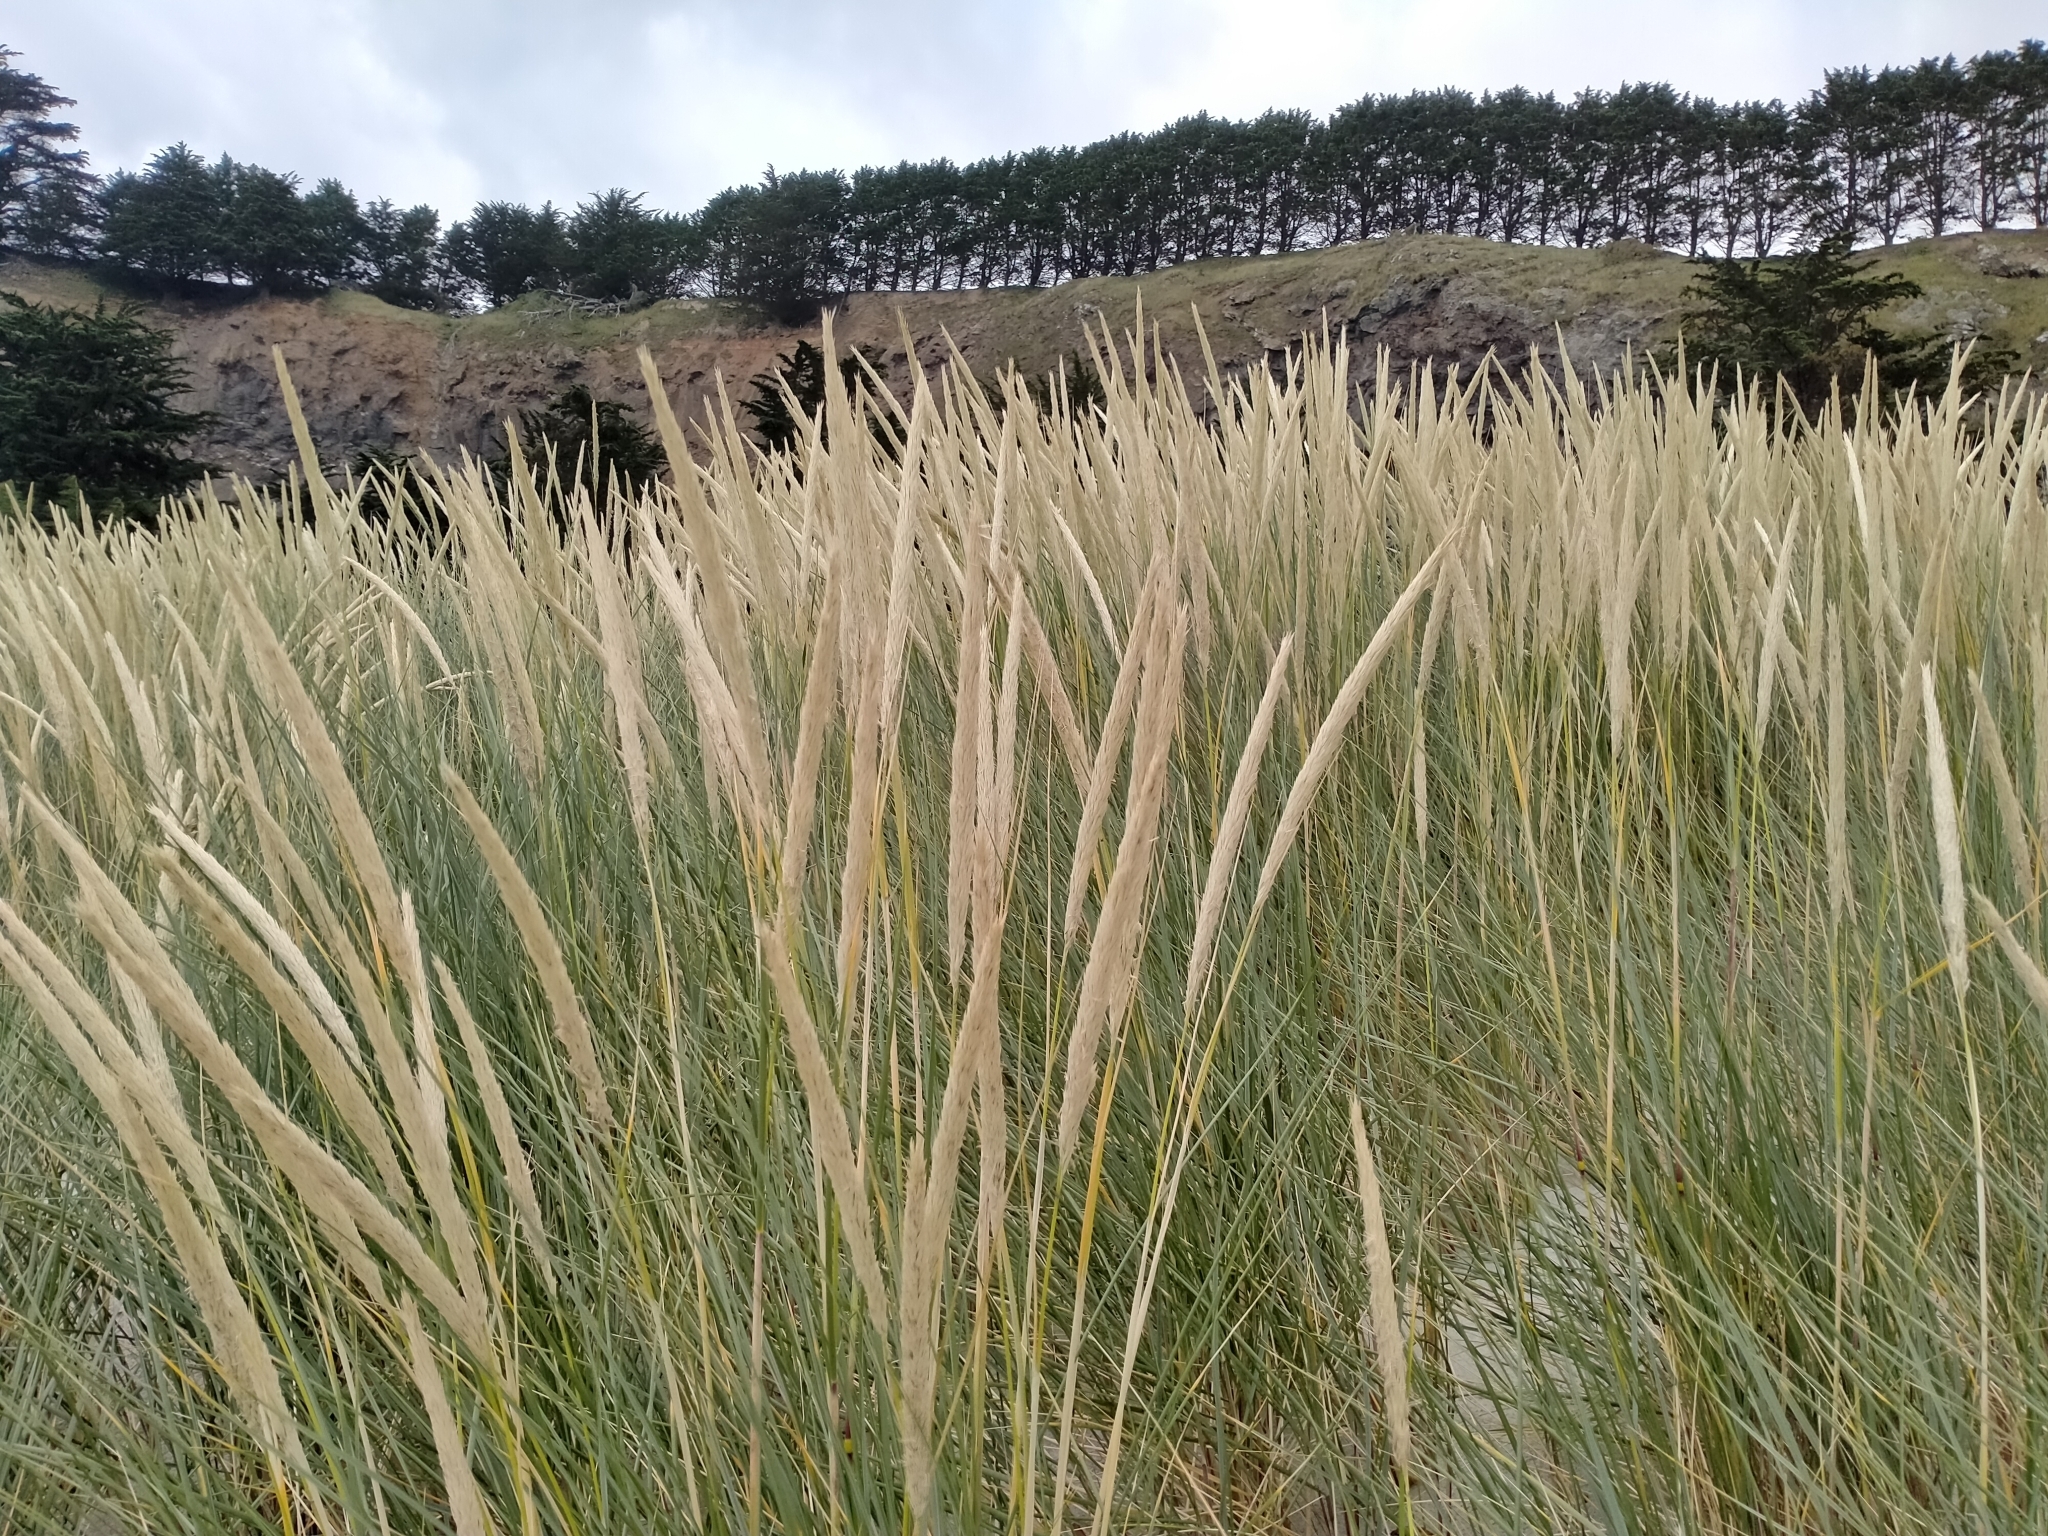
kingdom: Plantae
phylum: Tracheophyta
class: Liliopsida
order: Poales
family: Poaceae
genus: Calamagrostis
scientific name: Calamagrostis arenaria
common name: European beachgrass
